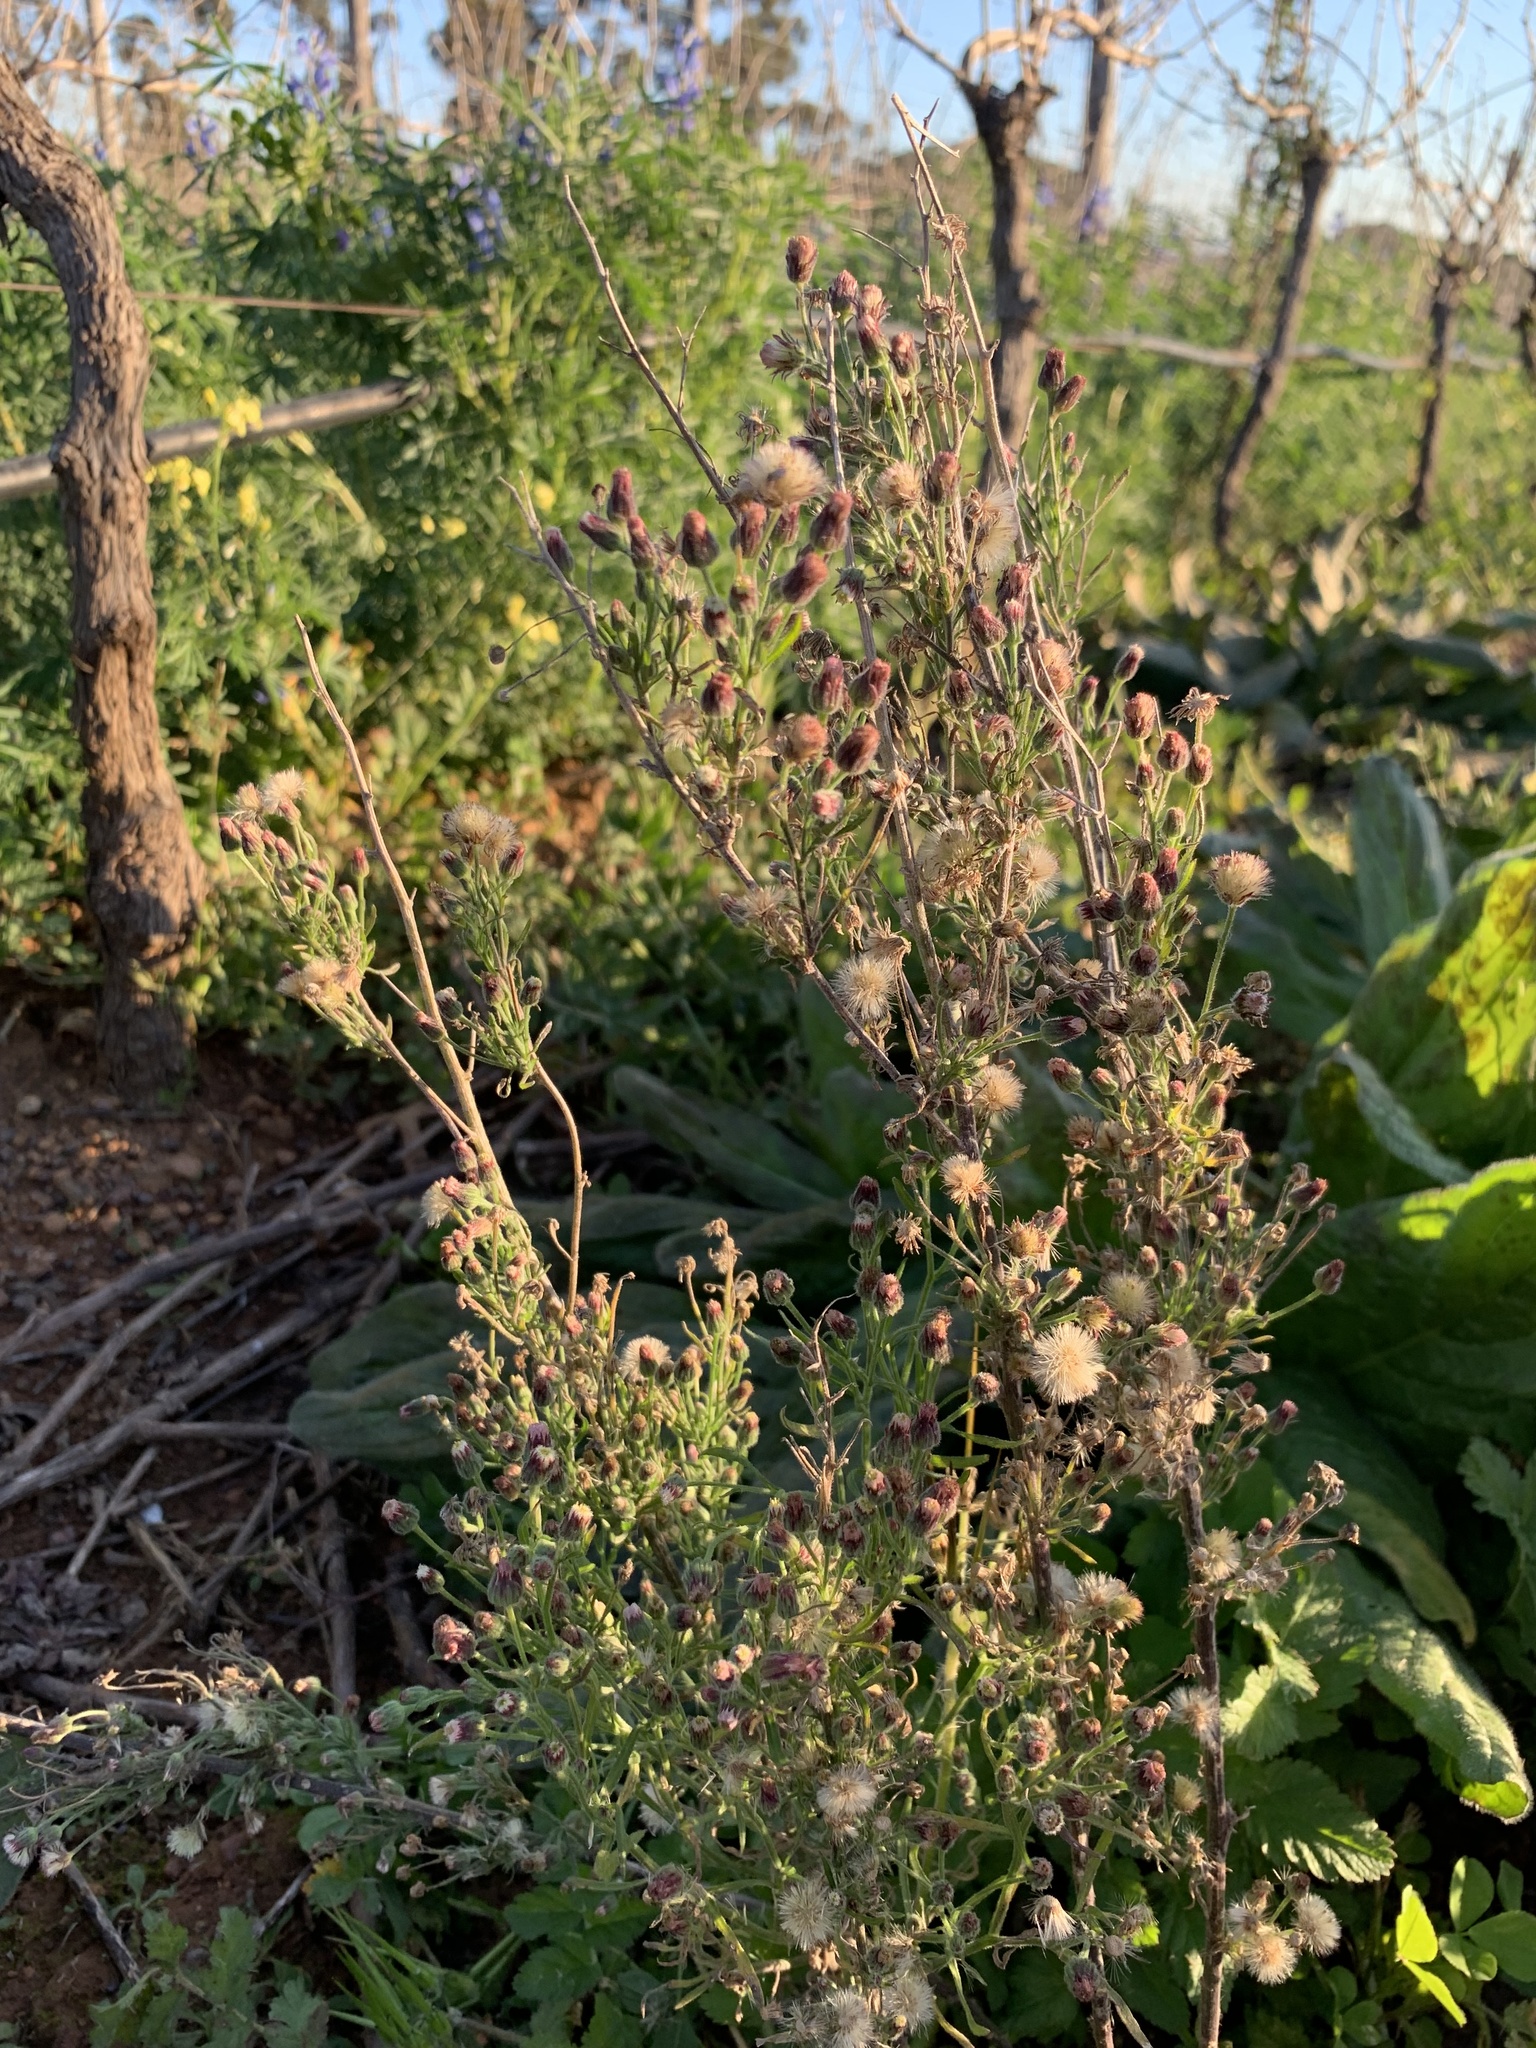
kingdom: Plantae
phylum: Tracheophyta
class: Magnoliopsida
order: Asterales
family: Asteraceae
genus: Erigeron
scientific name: Erigeron bonariensis
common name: Argentine fleabane
